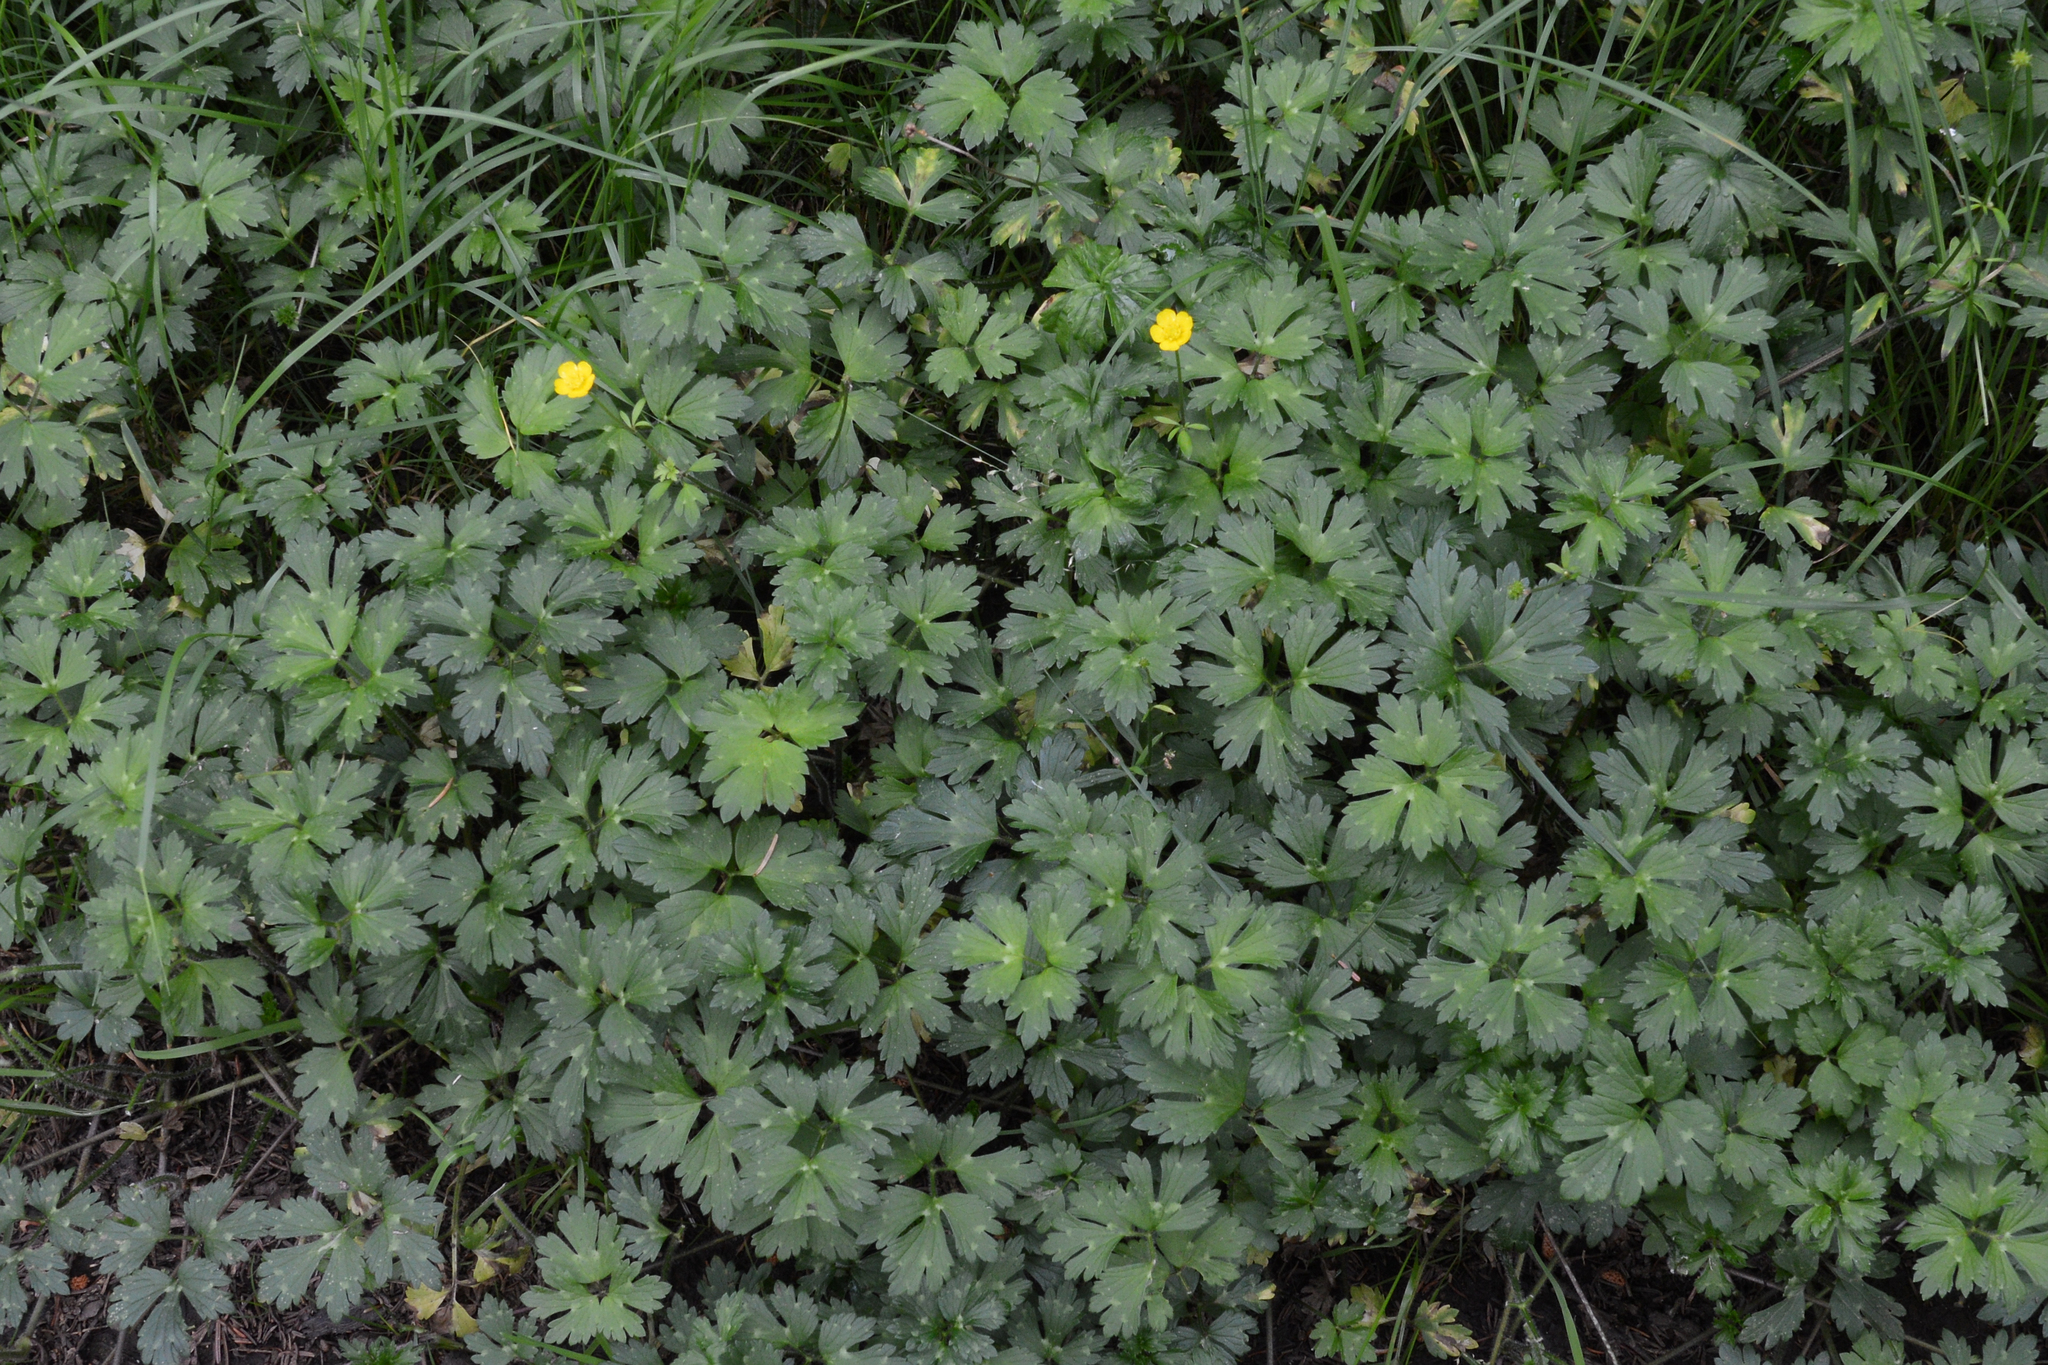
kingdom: Plantae
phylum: Tracheophyta
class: Magnoliopsida
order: Ranunculales
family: Ranunculaceae
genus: Ranunculus
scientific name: Ranunculus repens
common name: Creeping buttercup
